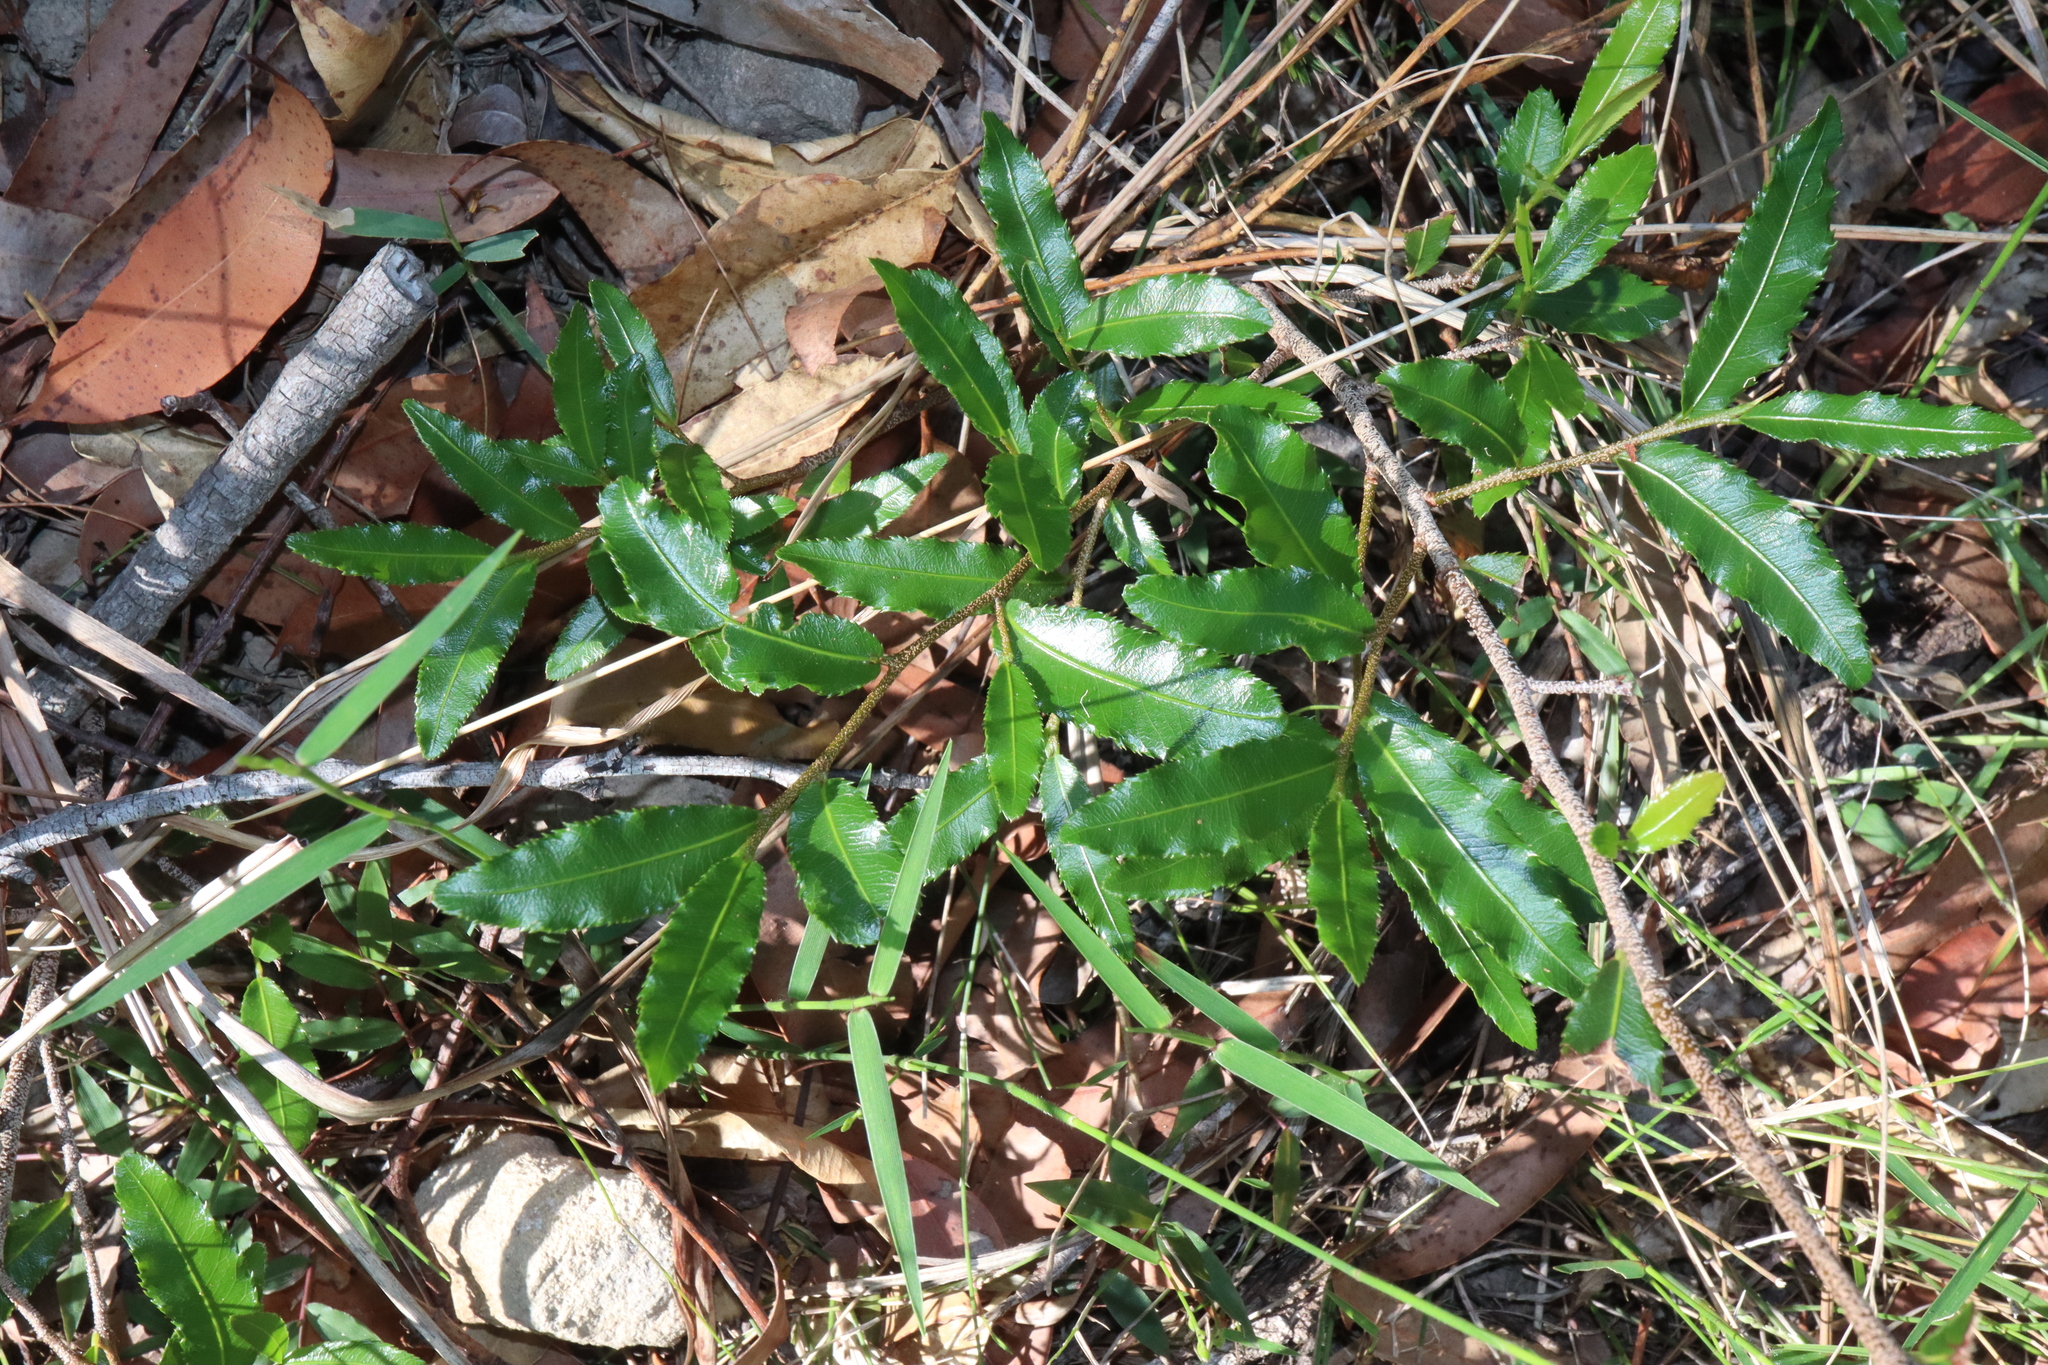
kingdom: Plantae
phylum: Tracheophyta
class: Magnoliopsida
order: Malpighiales
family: Ochnaceae
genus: Ochna
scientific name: Ochna serrulata
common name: Mickey mouse plant
